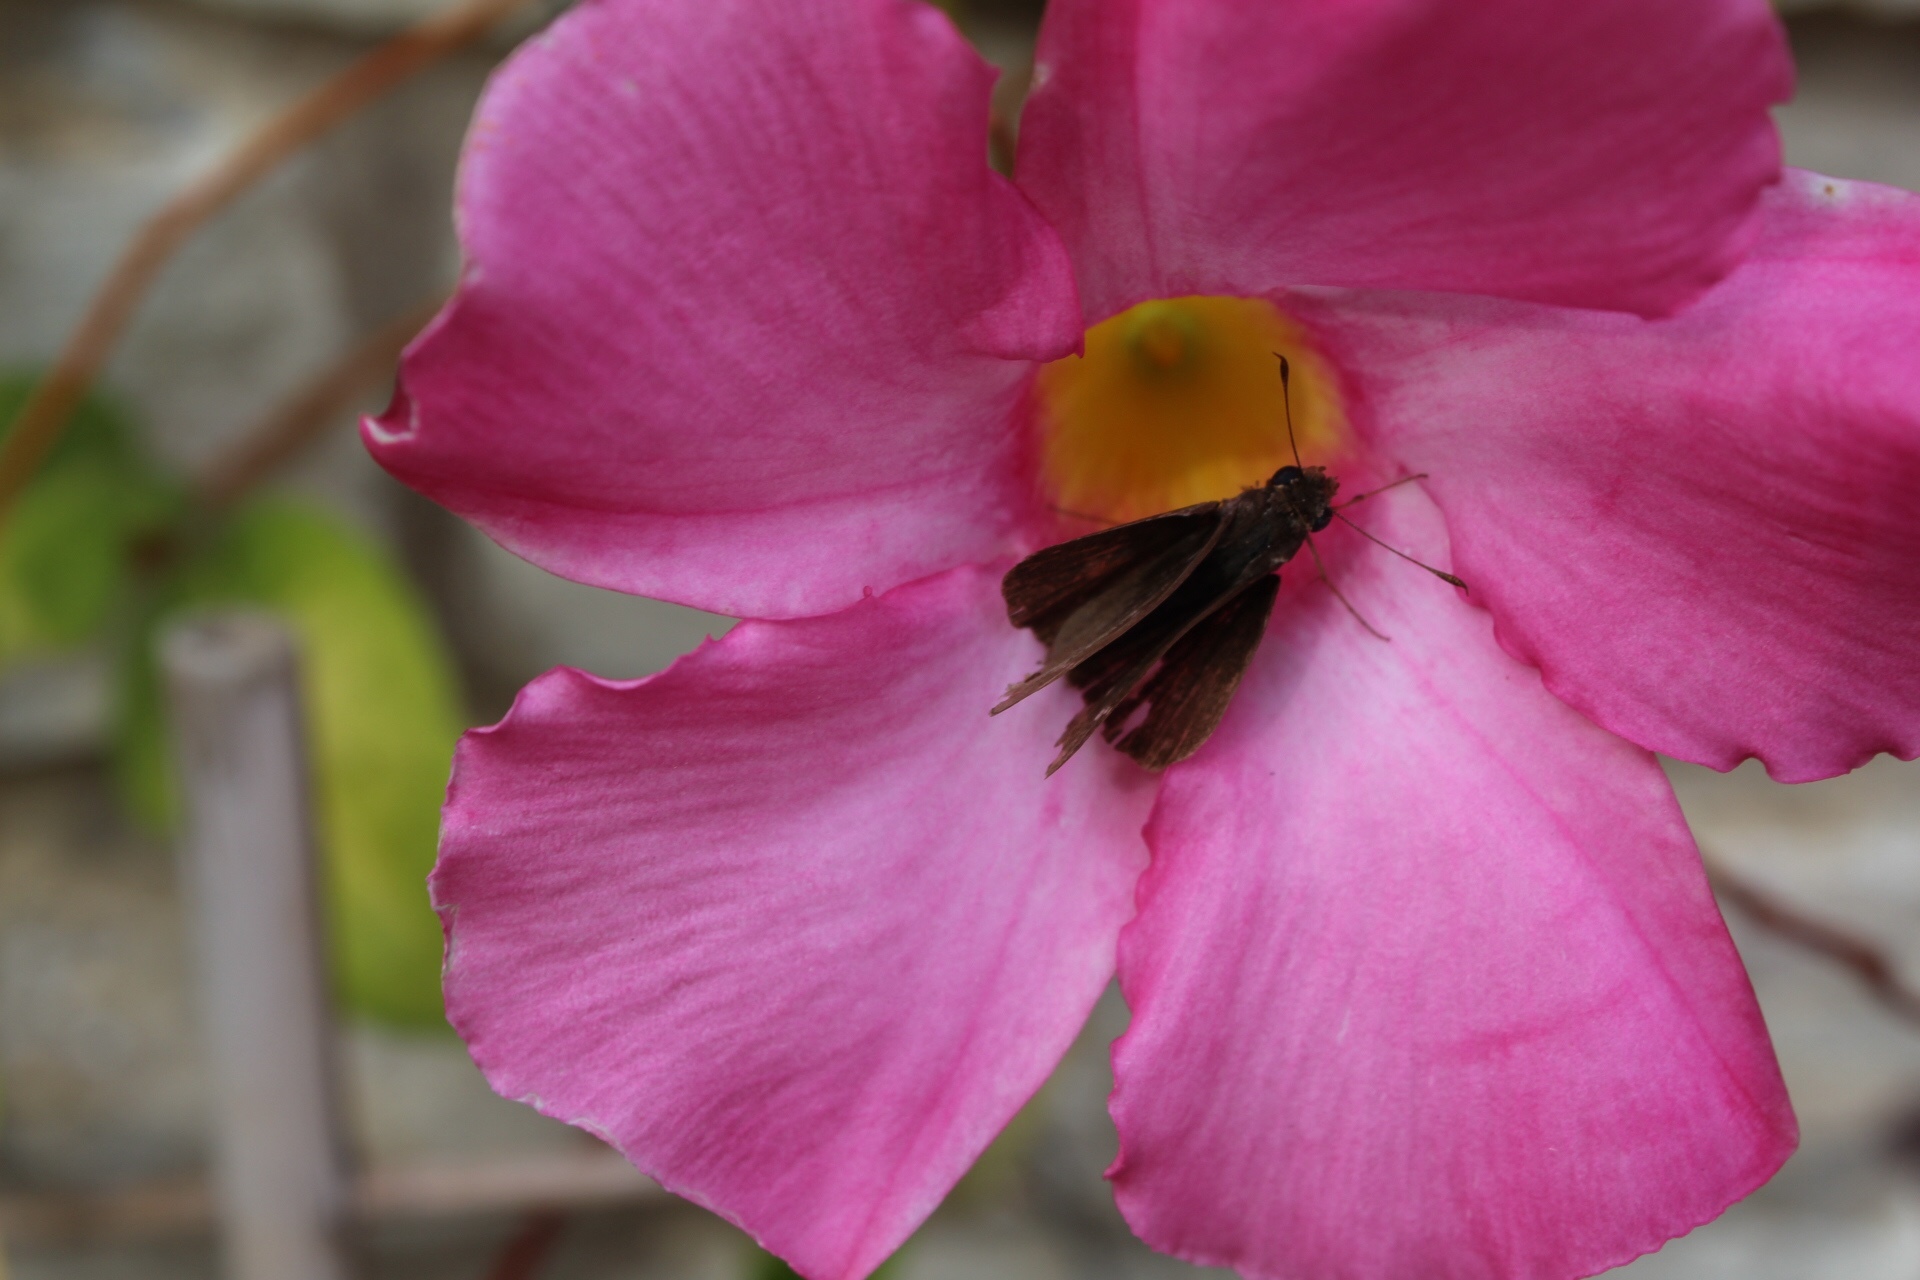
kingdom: Animalia
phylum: Arthropoda
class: Insecta
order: Lepidoptera
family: Hesperiidae
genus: Lerema
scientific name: Lerema accius
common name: Clouded skipper
